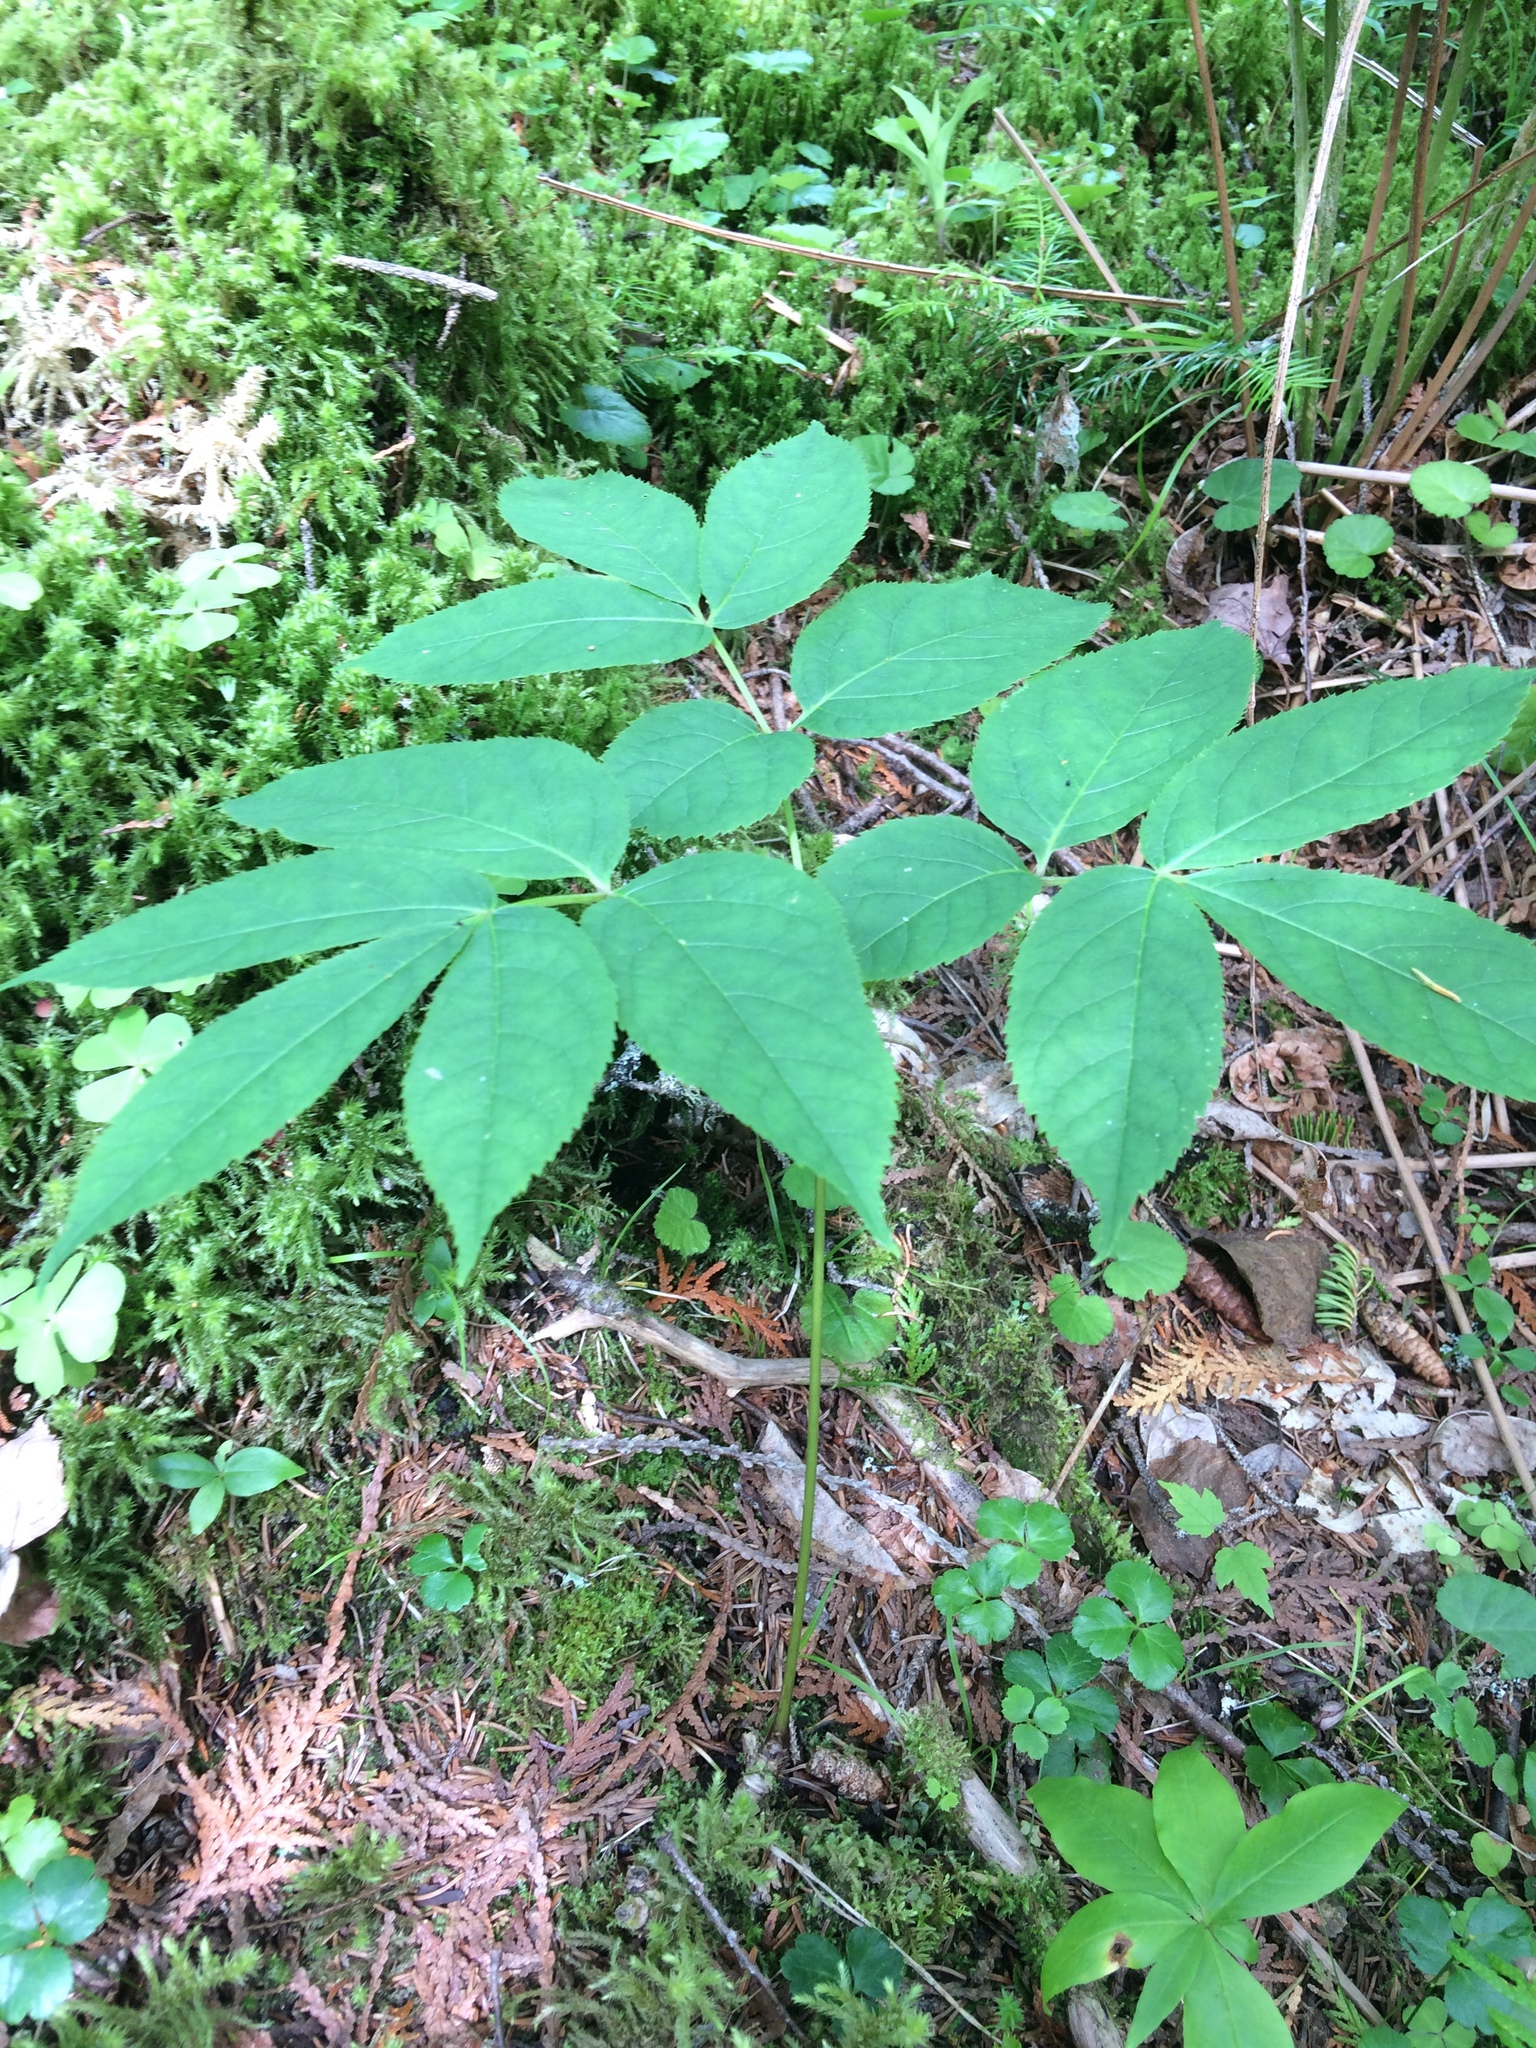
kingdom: Plantae
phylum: Tracheophyta
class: Magnoliopsida
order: Apiales
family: Araliaceae
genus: Aralia
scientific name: Aralia nudicaulis
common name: Wild sarsaparilla
